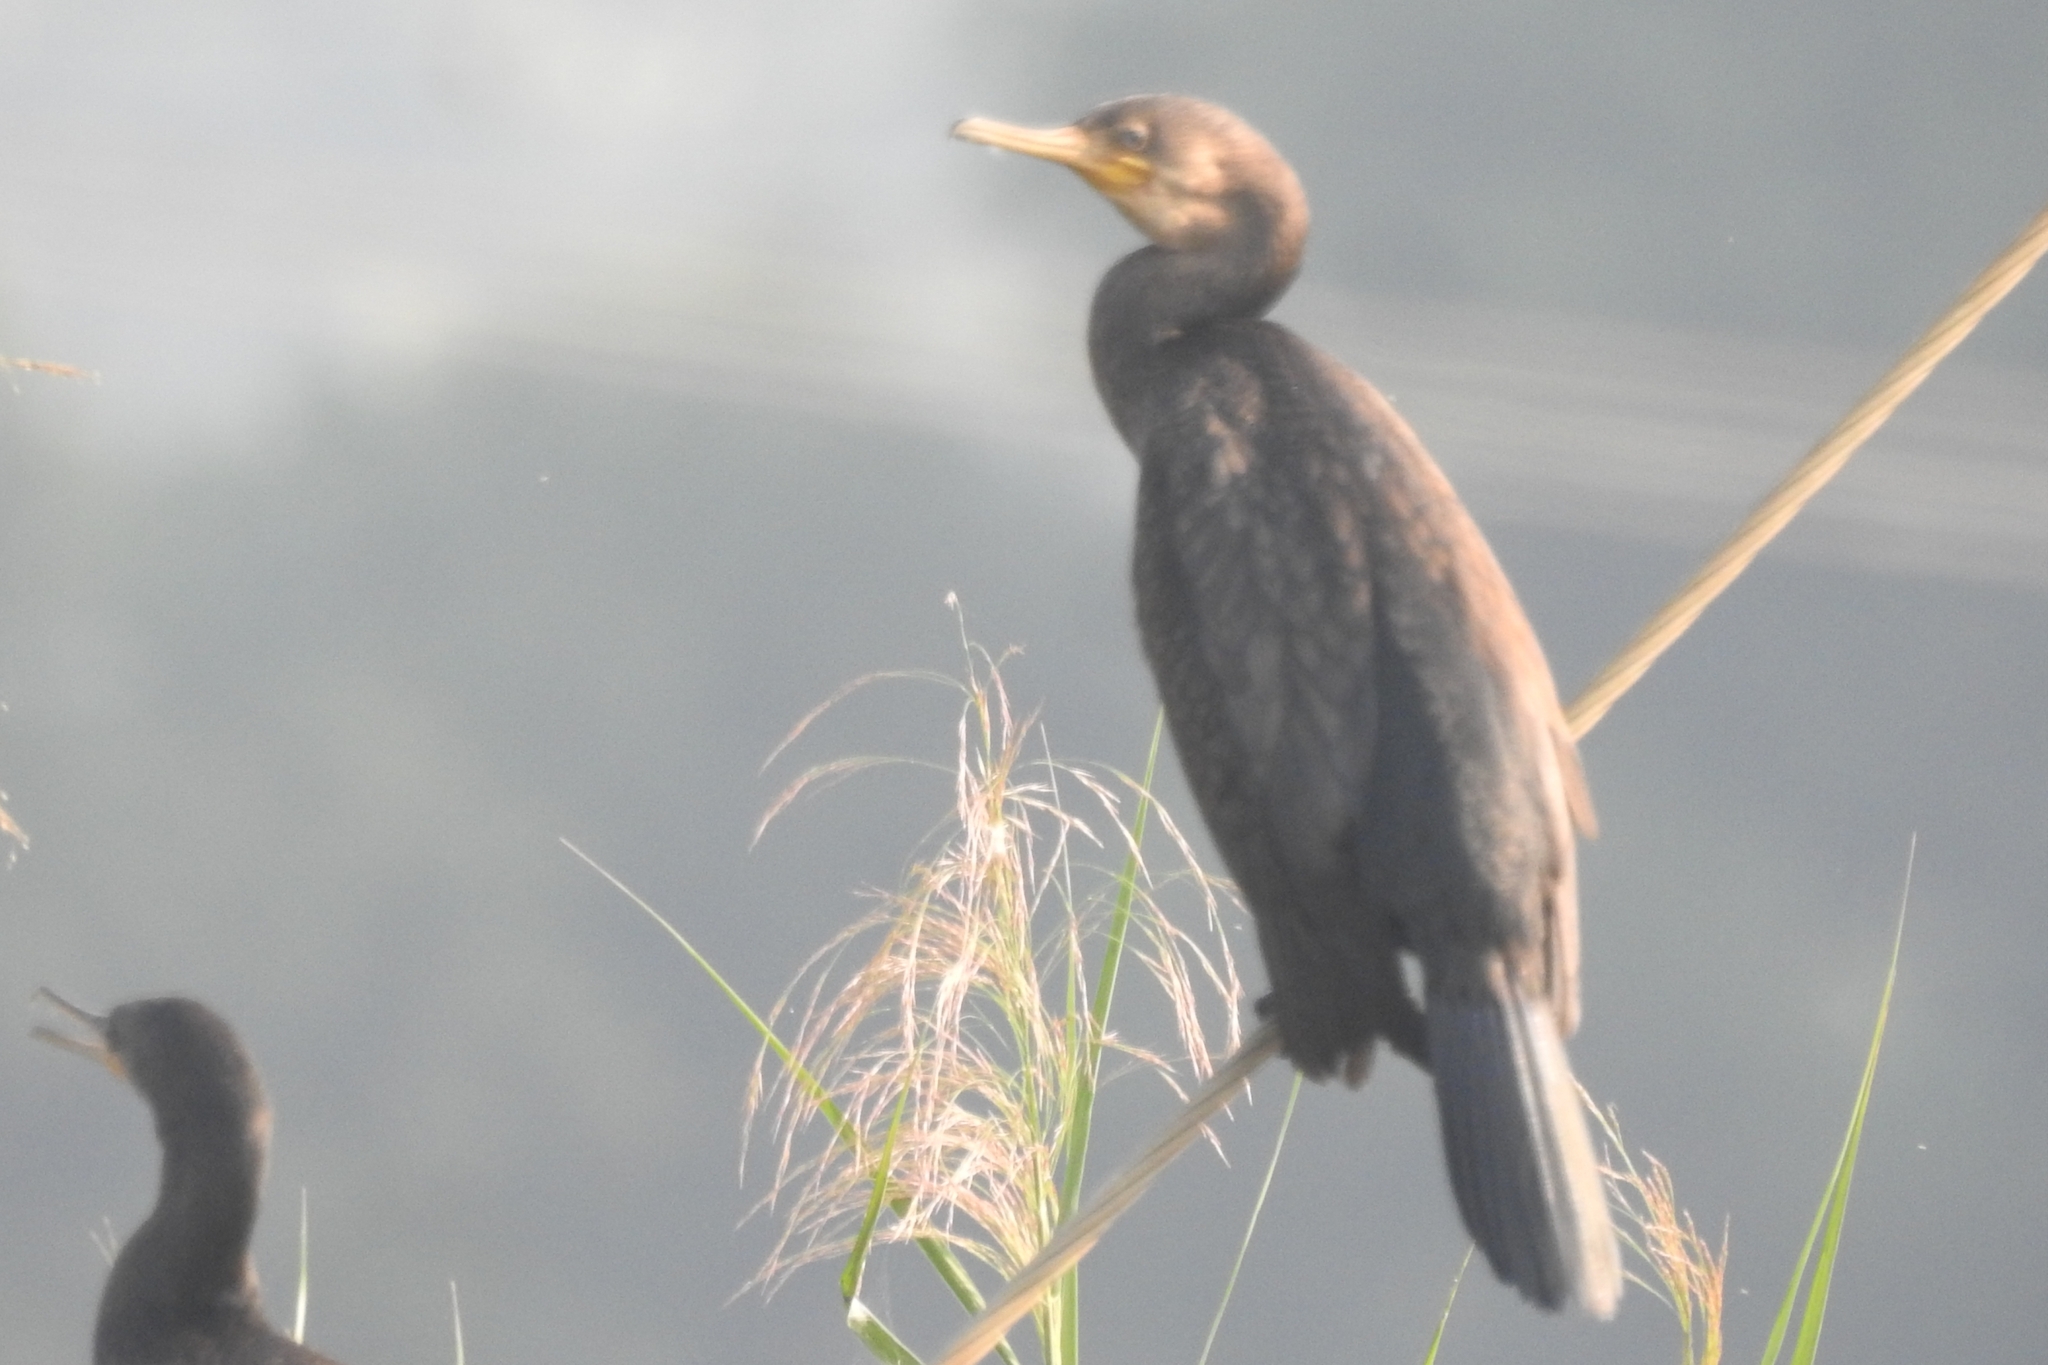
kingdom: Animalia
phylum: Chordata
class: Aves
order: Suliformes
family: Phalacrocoracidae
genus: Phalacrocorax
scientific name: Phalacrocorax fuscicollis
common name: Indian cormorant
